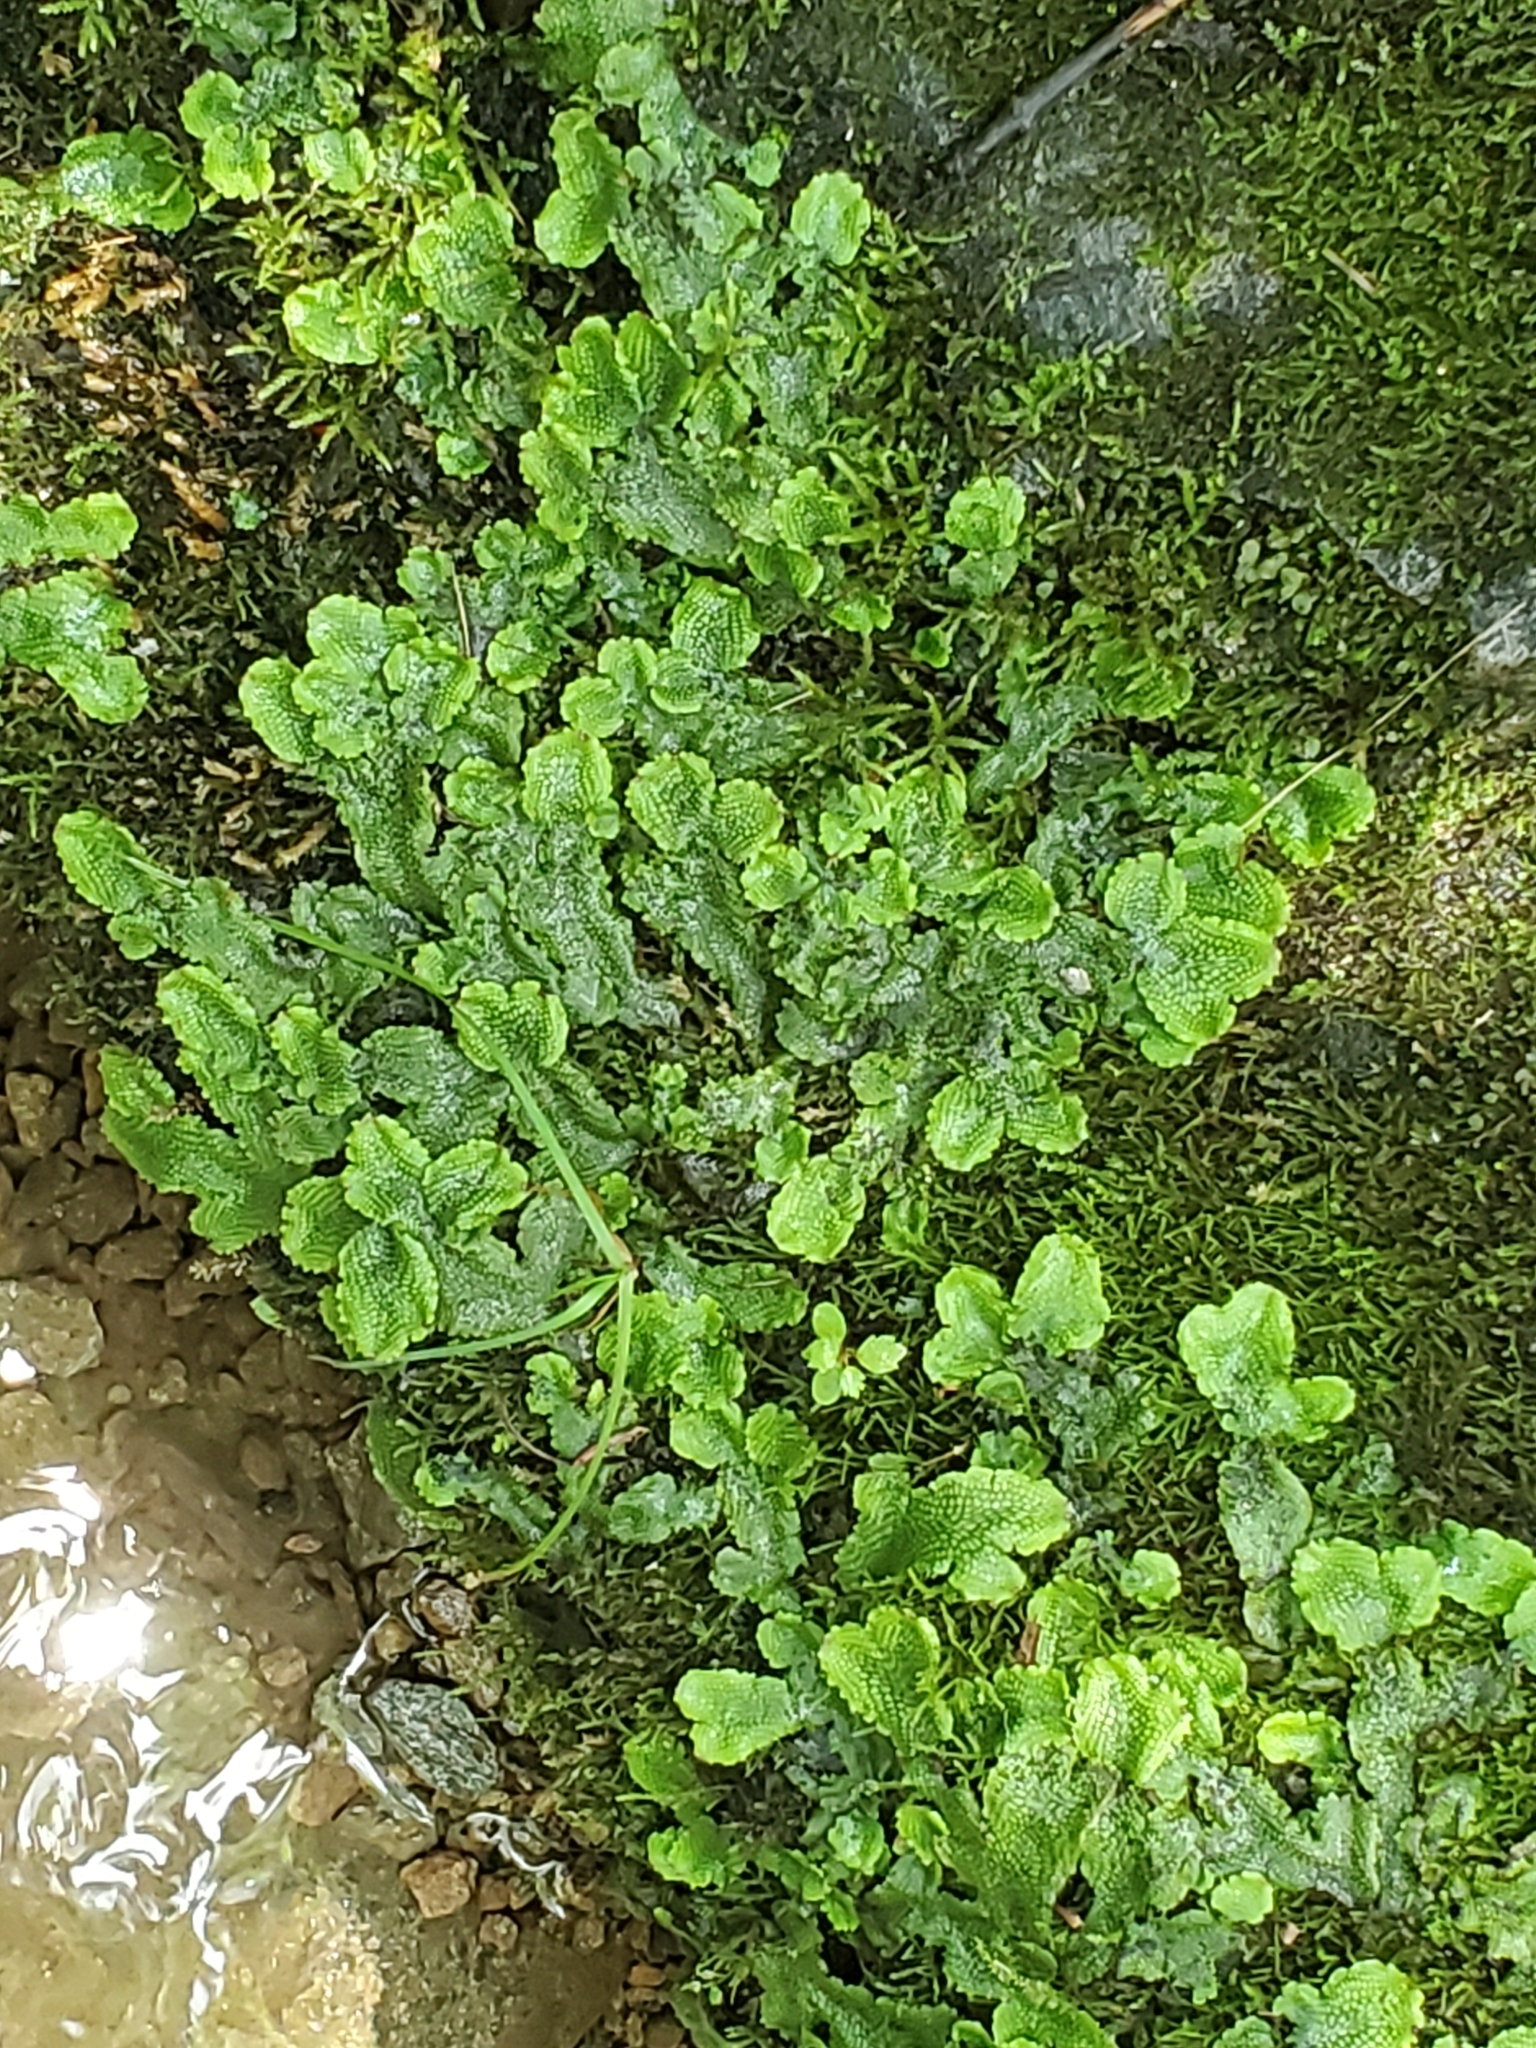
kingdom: Plantae
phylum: Marchantiophyta
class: Marchantiopsida
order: Marchantiales
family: Conocephalaceae
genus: Conocephalum
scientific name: Conocephalum salebrosum
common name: Cat-tongue liverwort
